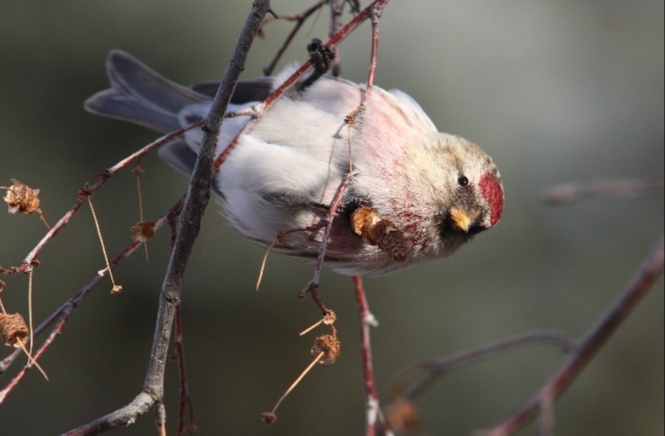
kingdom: Animalia
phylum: Chordata
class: Aves
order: Passeriformes
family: Fringillidae
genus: Acanthis
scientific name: Acanthis flammea
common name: Common redpoll
